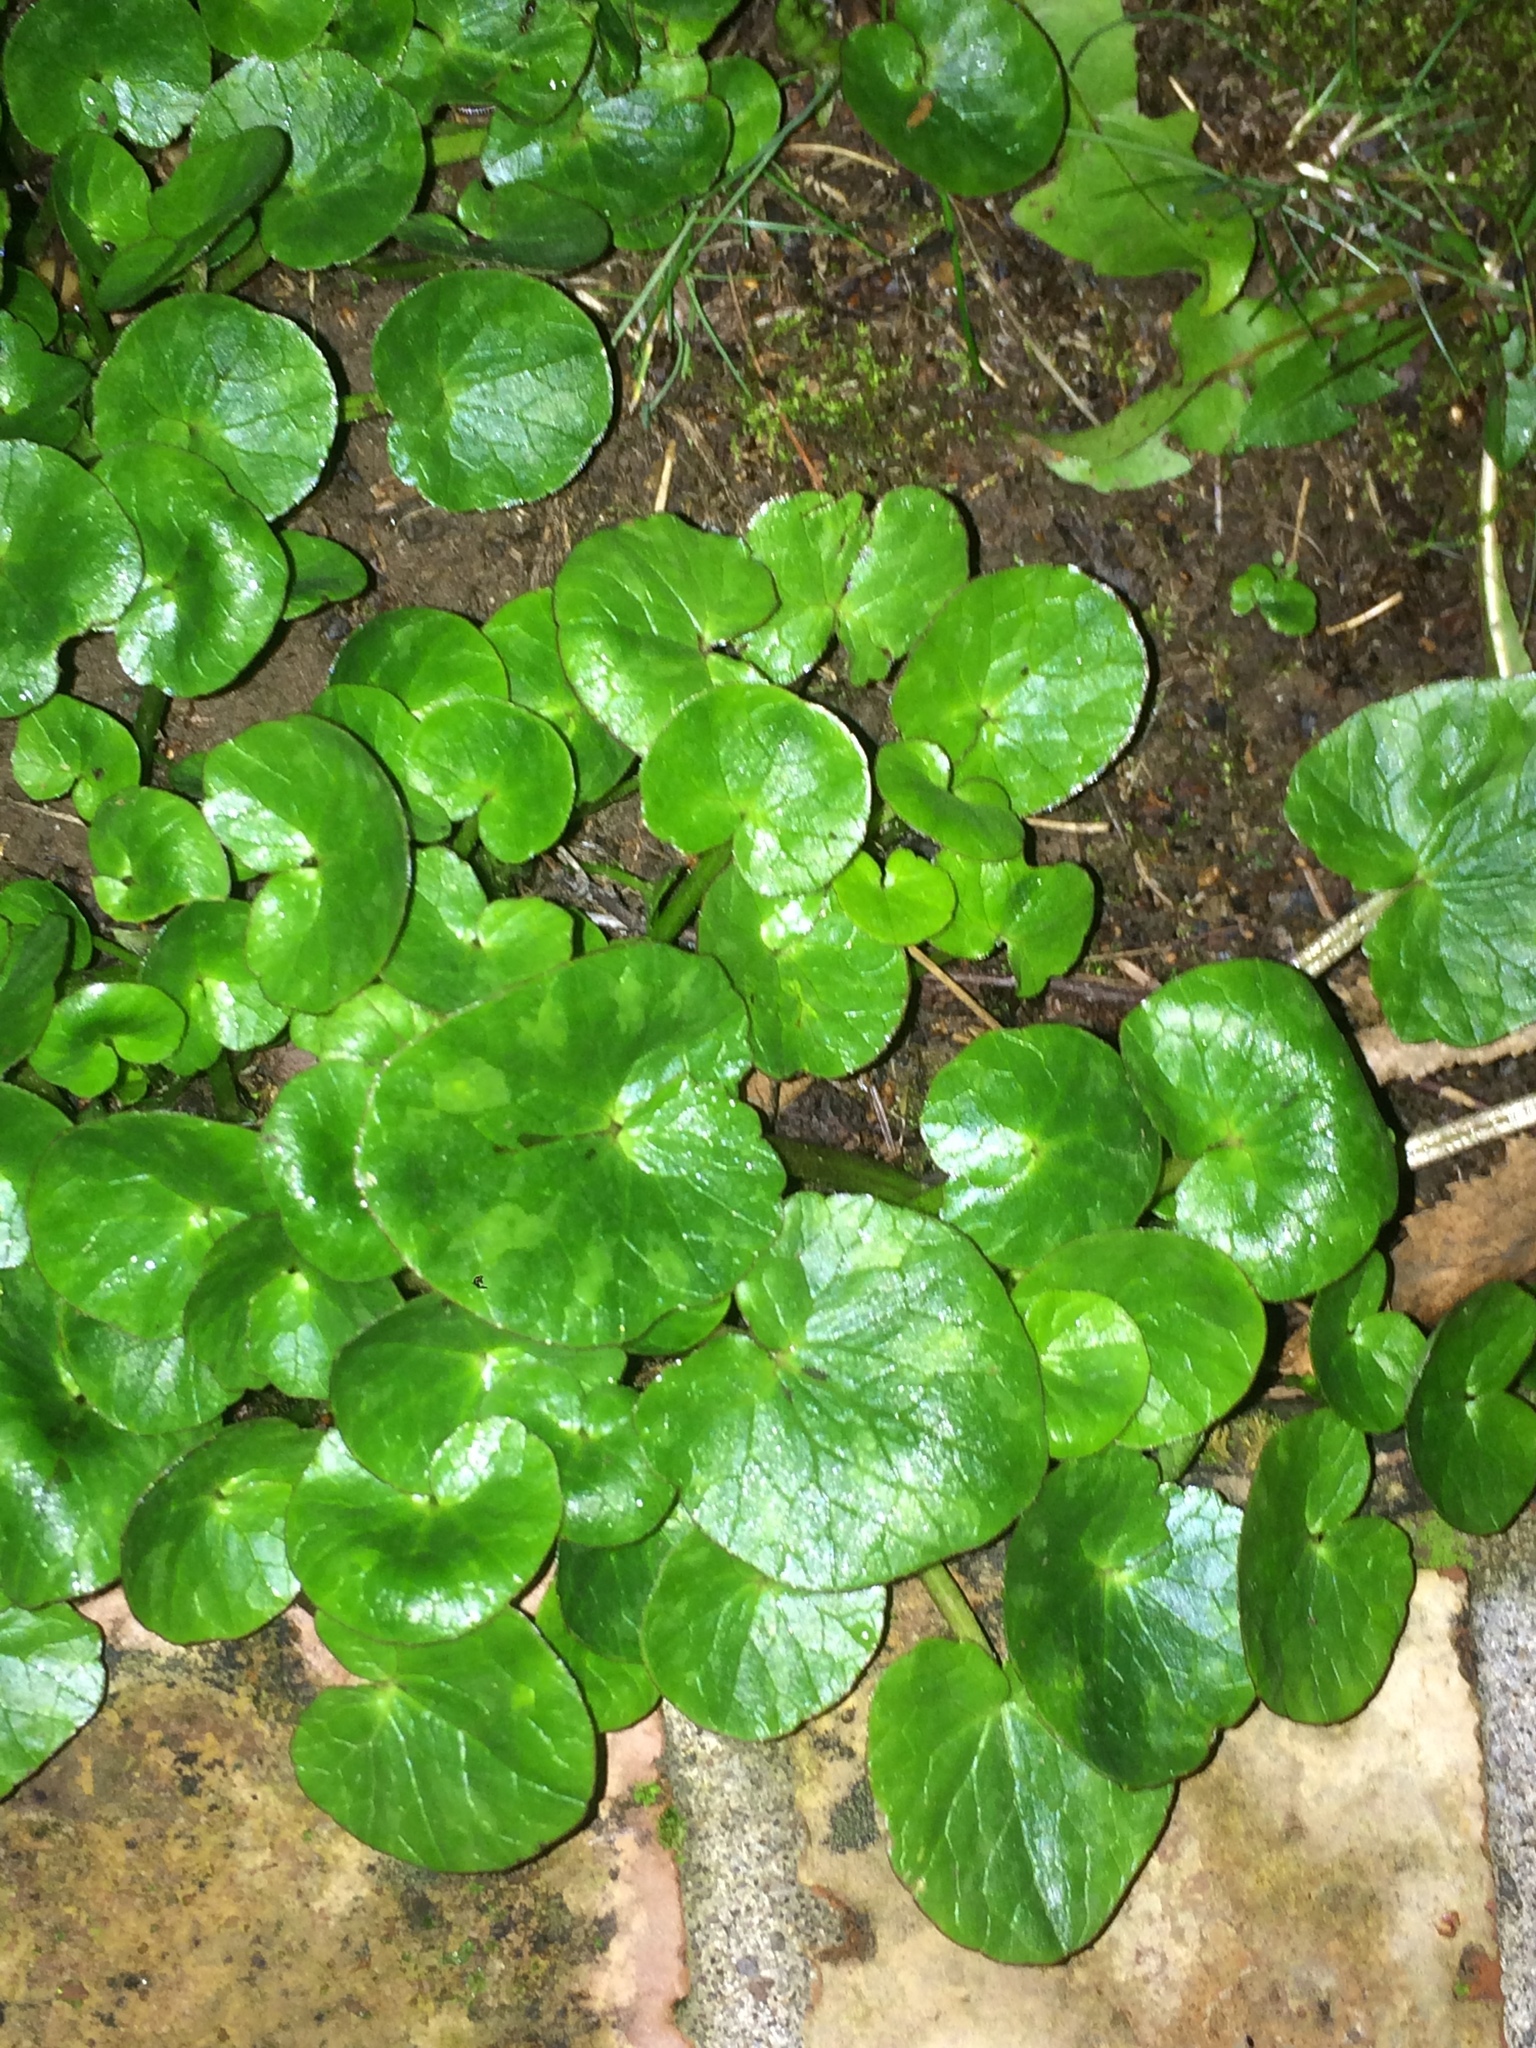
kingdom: Plantae
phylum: Tracheophyta
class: Magnoliopsida
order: Ranunculales
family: Ranunculaceae
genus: Ficaria
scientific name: Ficaria verna
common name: Lesser celandine
